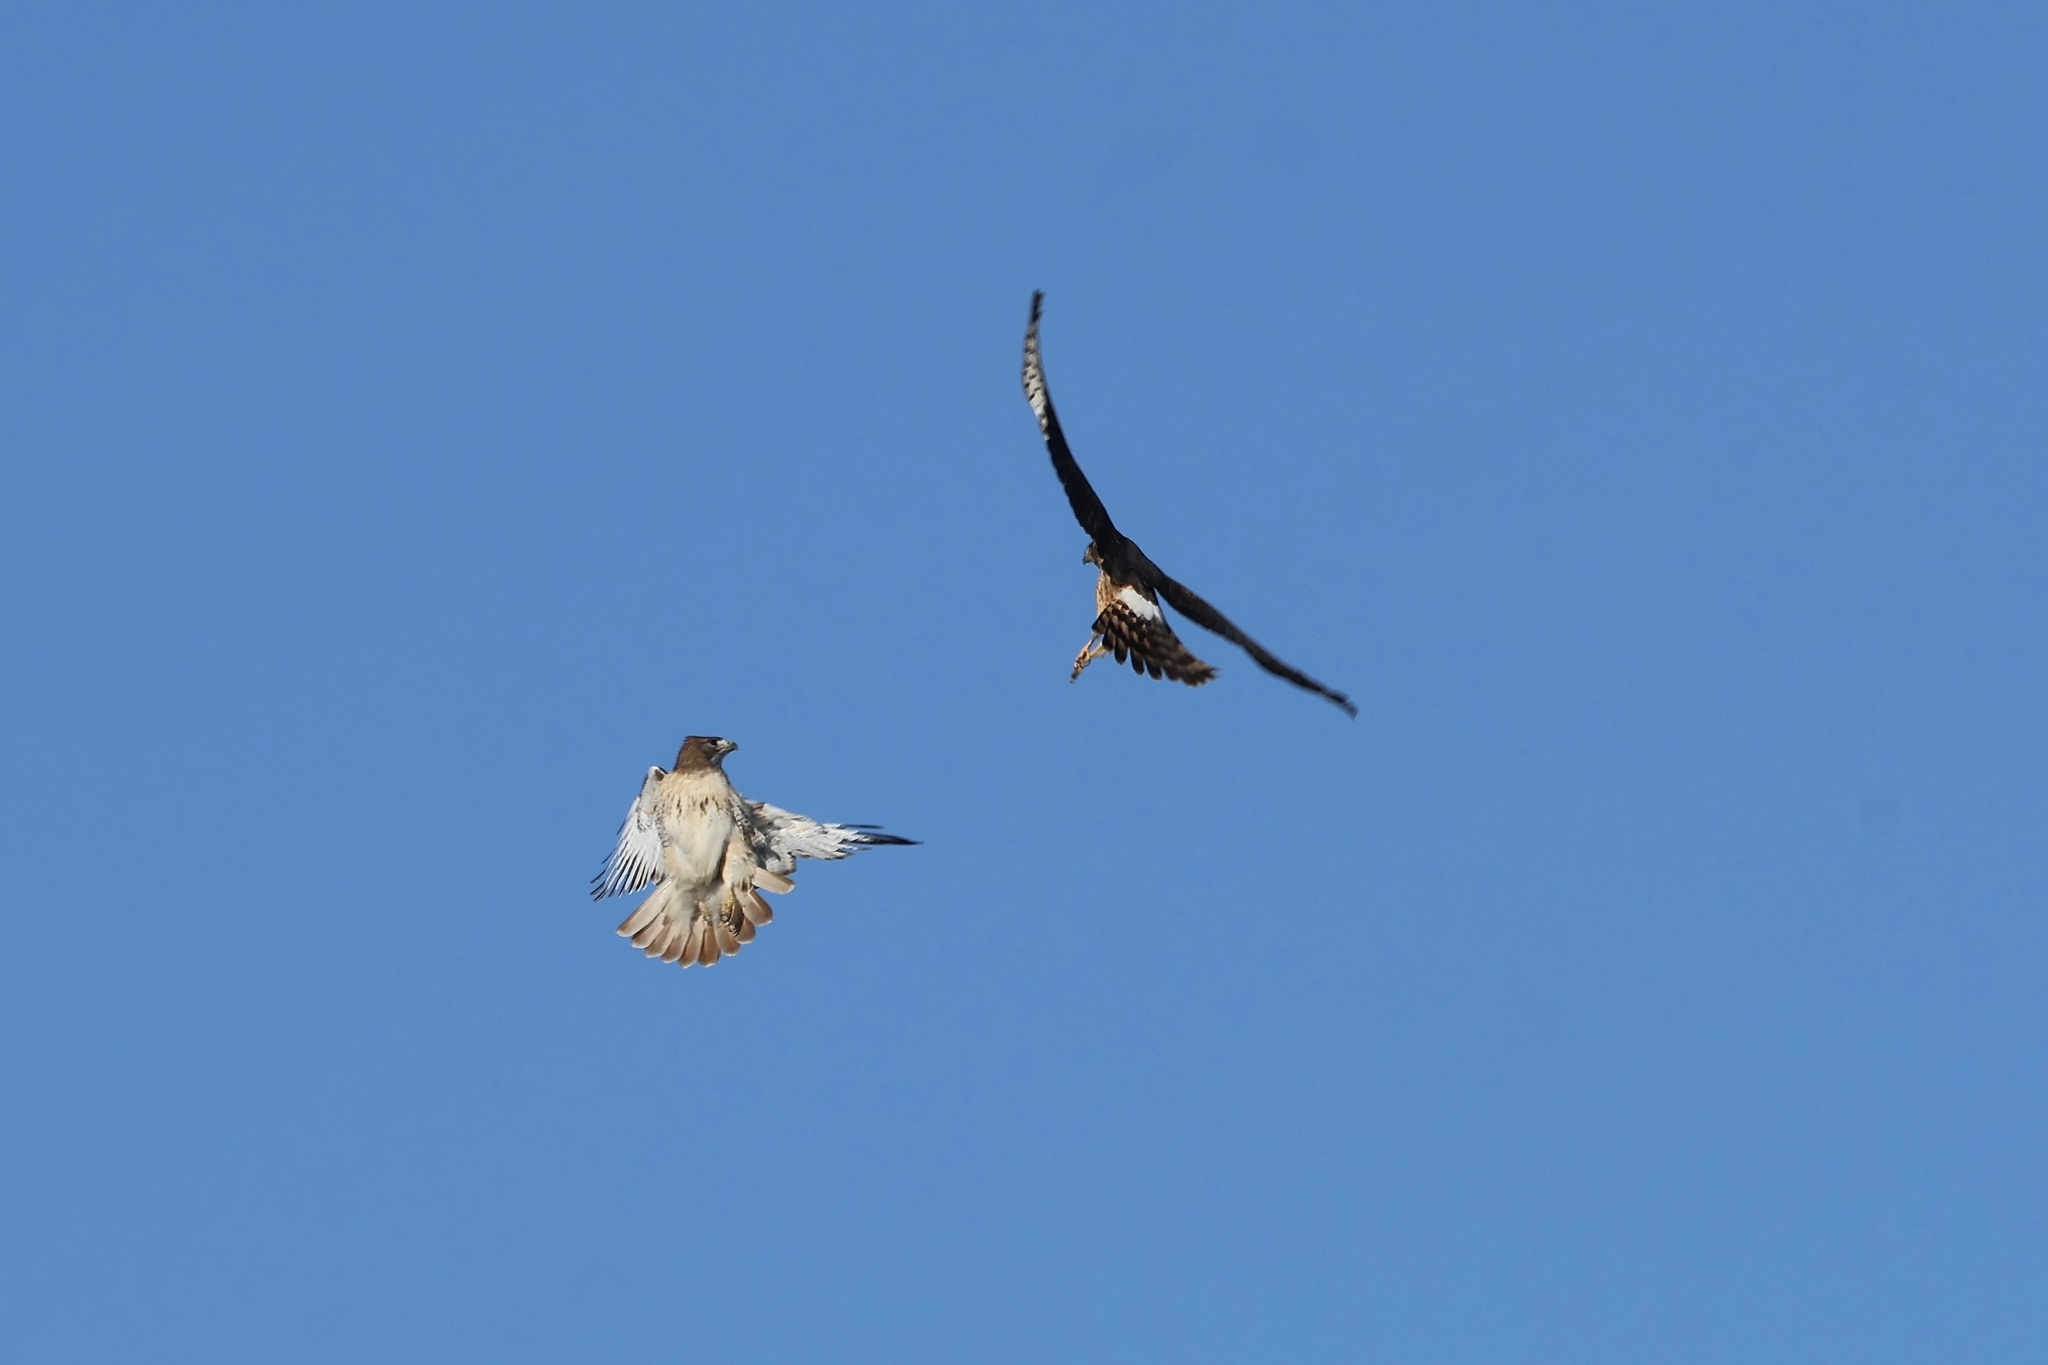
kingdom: Animalia
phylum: Chordata
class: Aves
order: Accipitriformes
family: Accipitridae
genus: Buteo
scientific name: Buteo jamaicensis
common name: Red-tailed hawk
